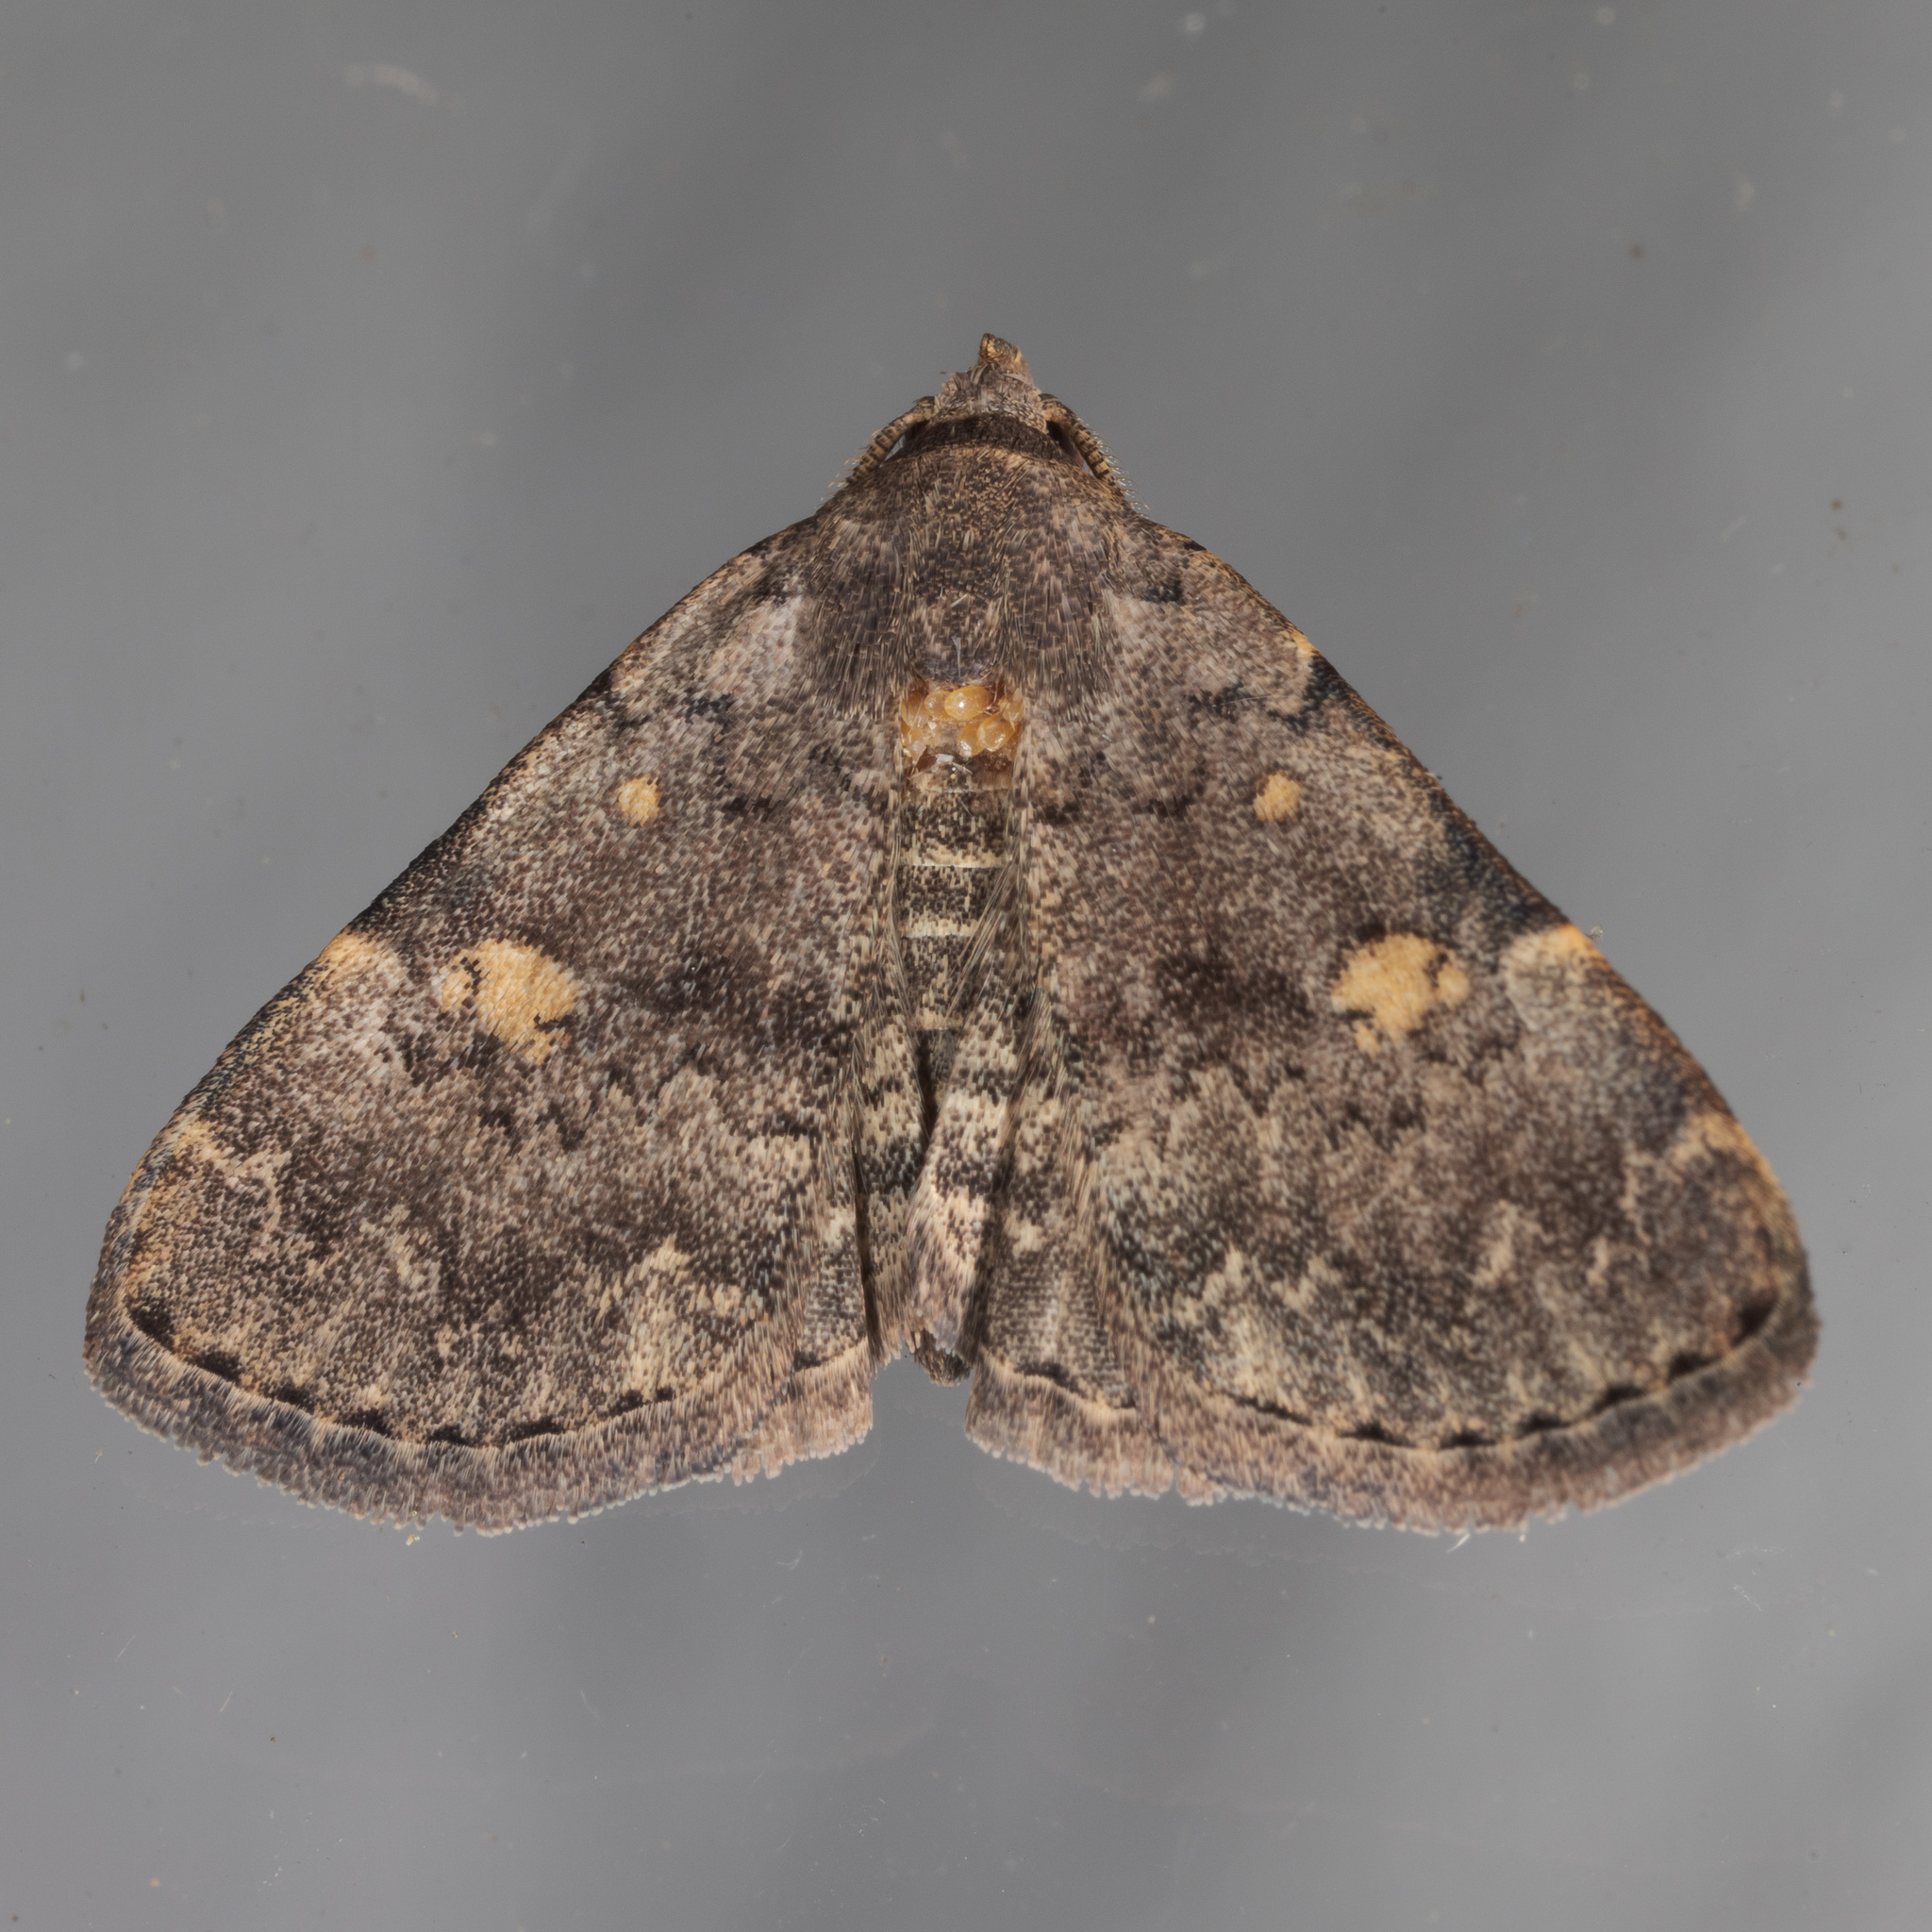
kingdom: Animalia
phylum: Arthropoda
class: Insecta
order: Lepidoptera
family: Erebidae
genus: Idia
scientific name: Idia aemula
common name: Common idia moth
